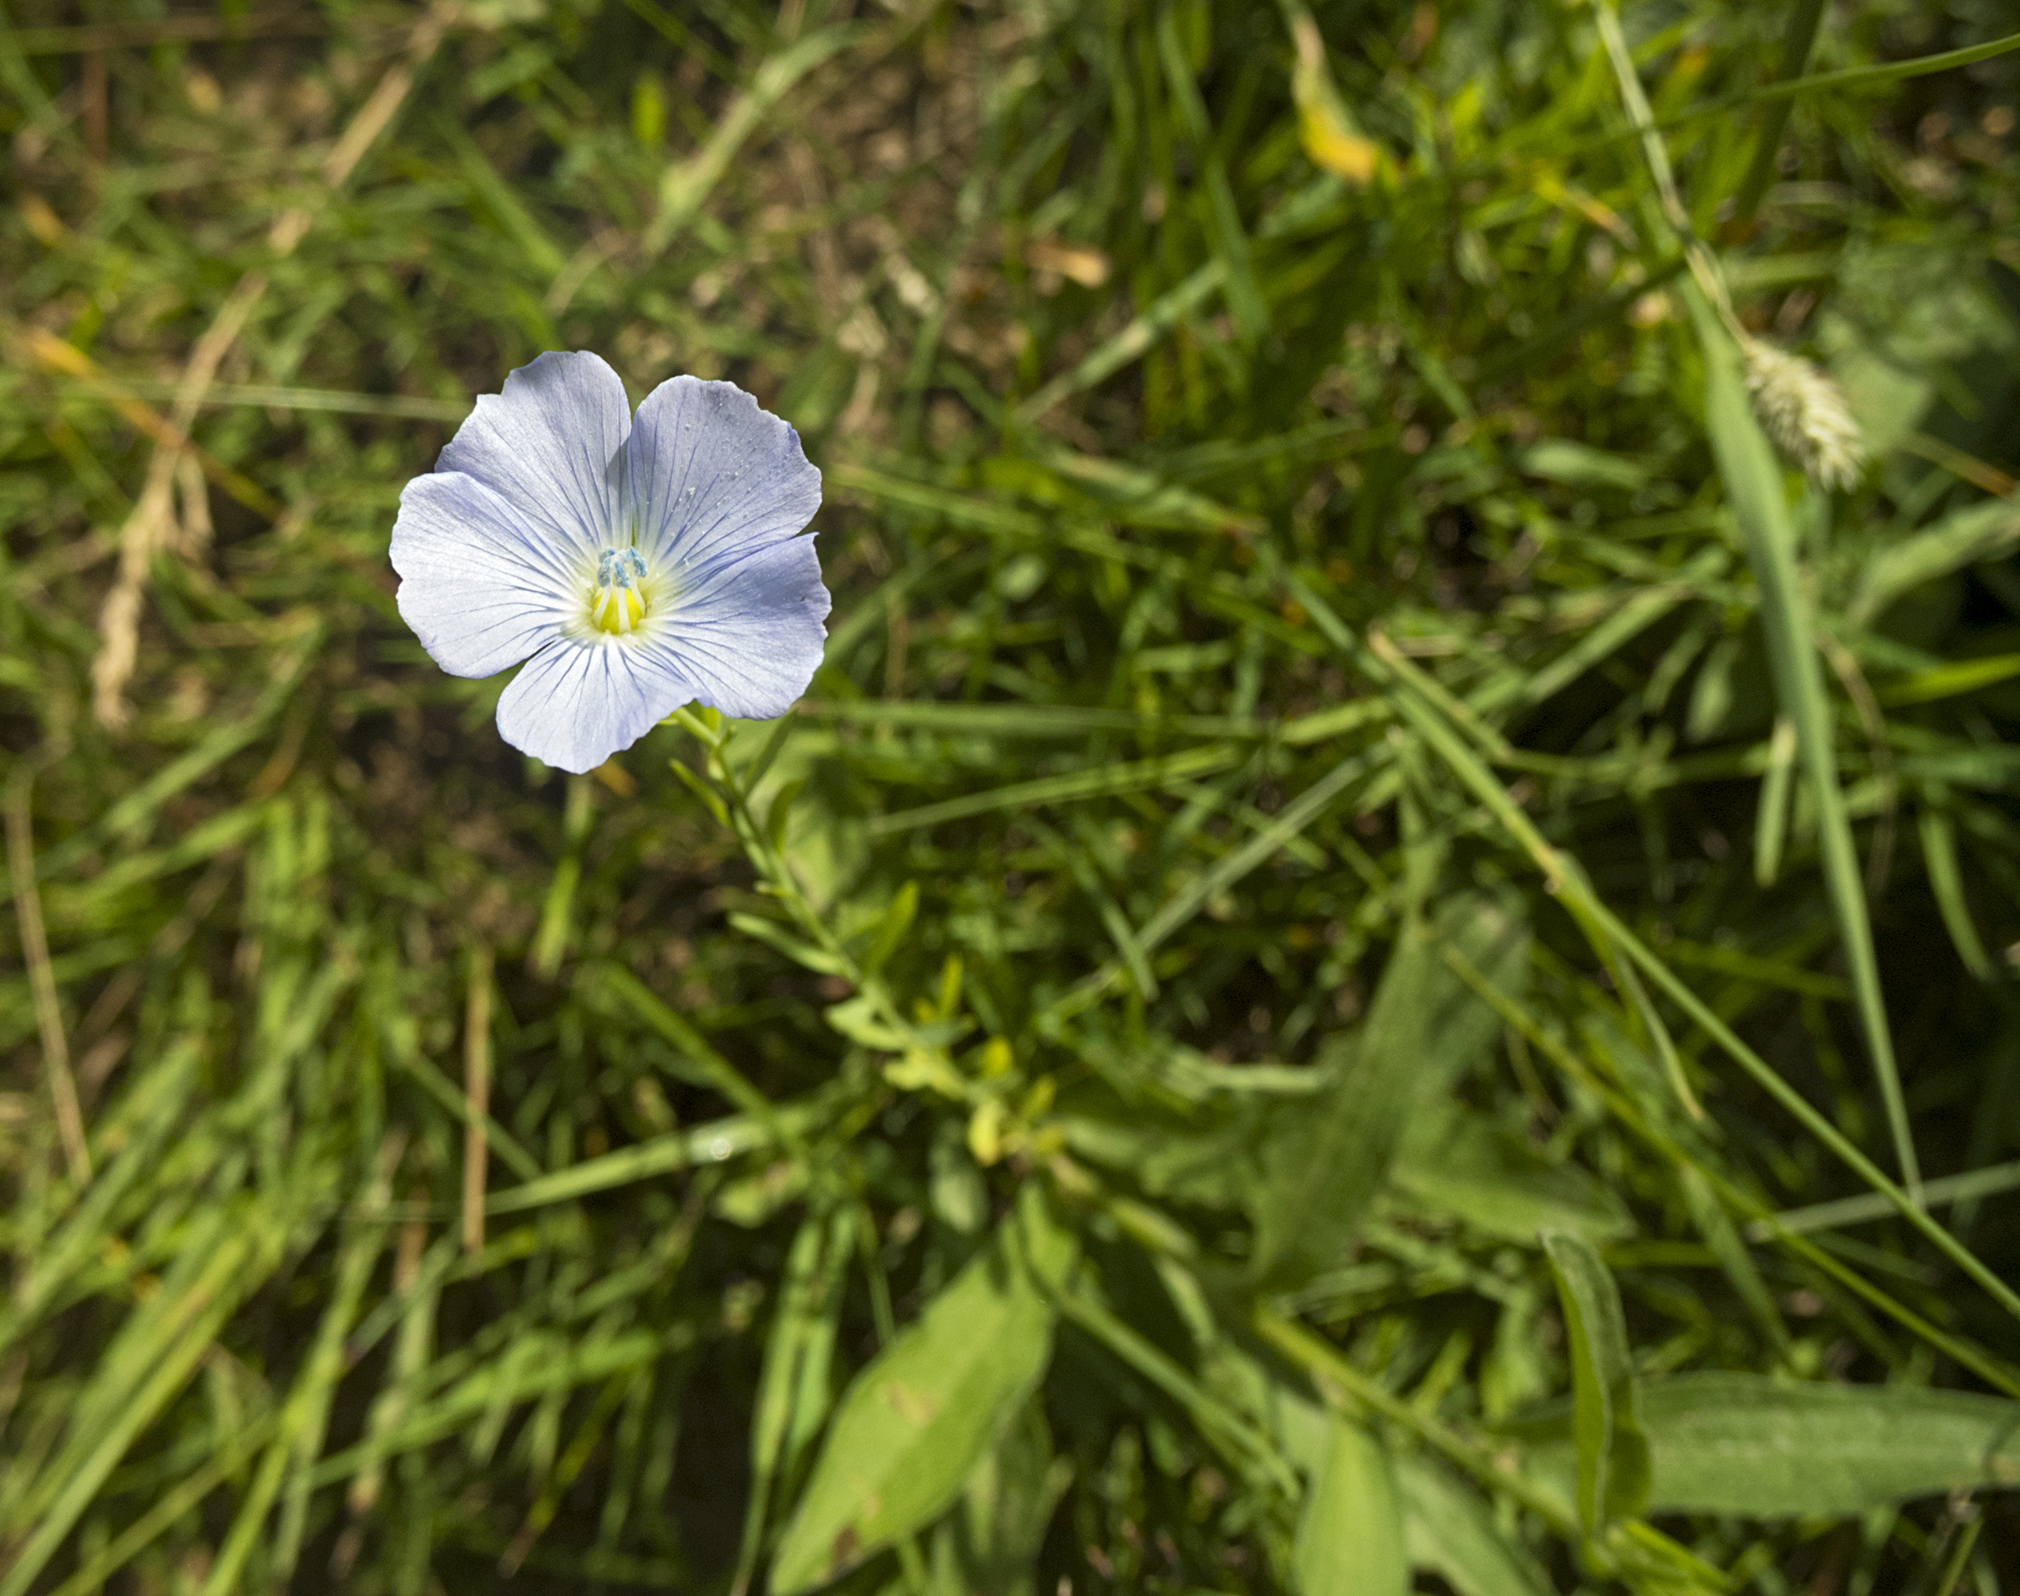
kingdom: Plantae
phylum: Tracheophyta
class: Magnoliopsida
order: Malpighiales
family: Linaceae
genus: Linum
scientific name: Linum usitatissimum
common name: Flax
